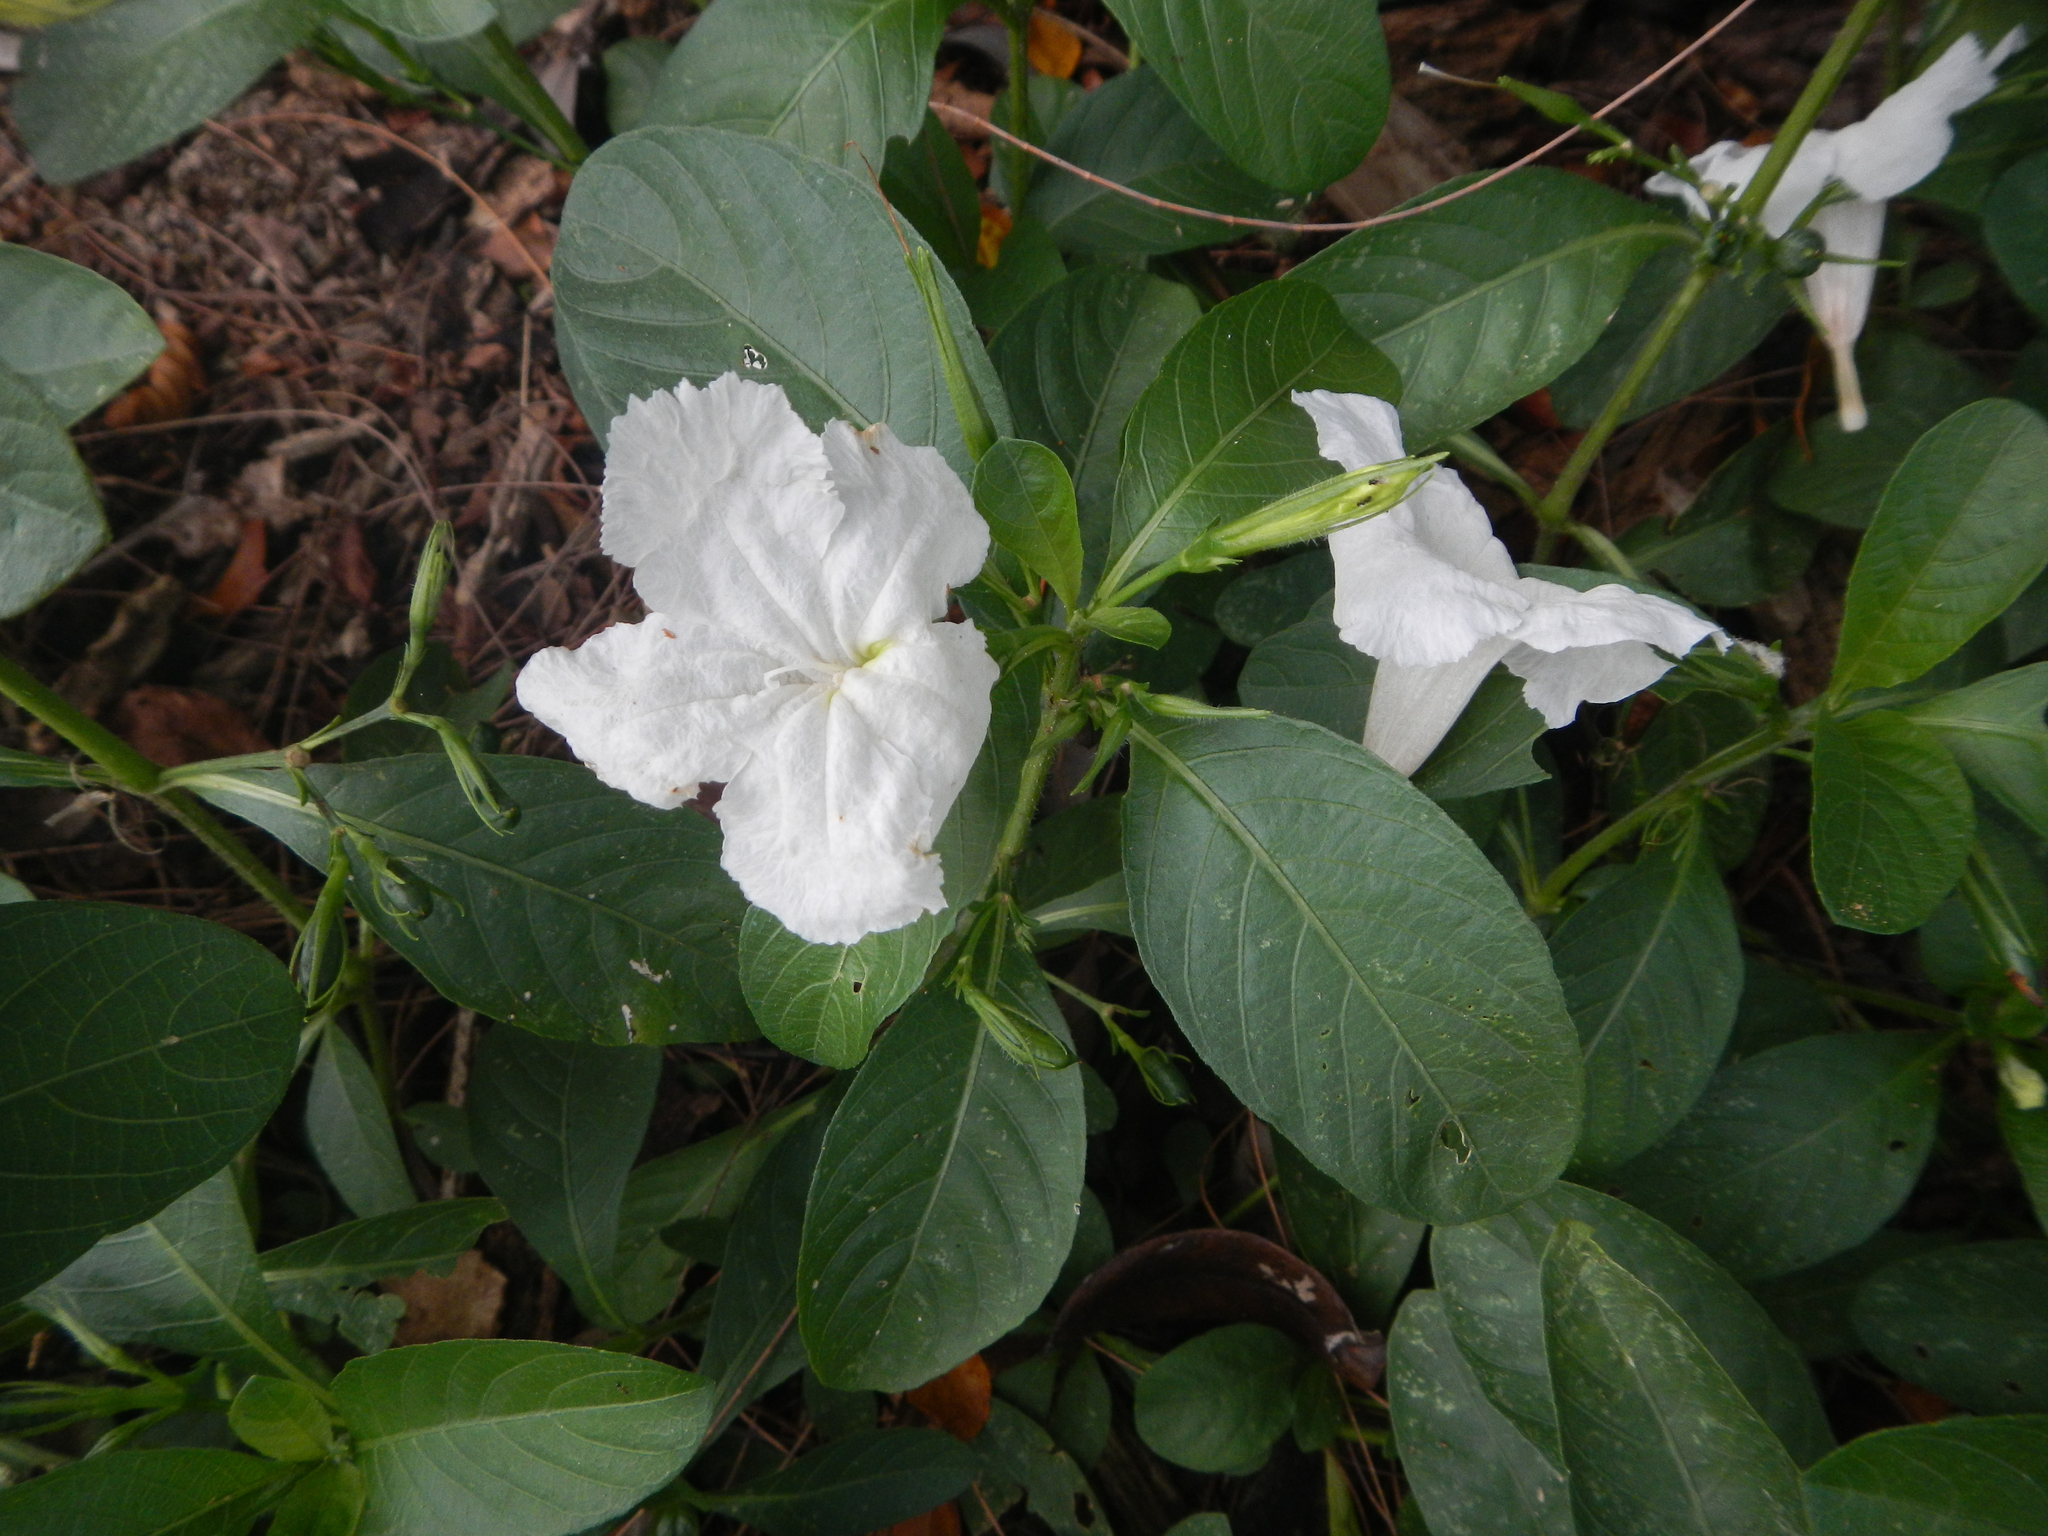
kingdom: Plantae
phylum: Tracheophyta
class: Magnoliopsida
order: Lamiales
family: Acanthaceae
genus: Ruellia
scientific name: Ruellia tuberosa
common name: Devil's bit
